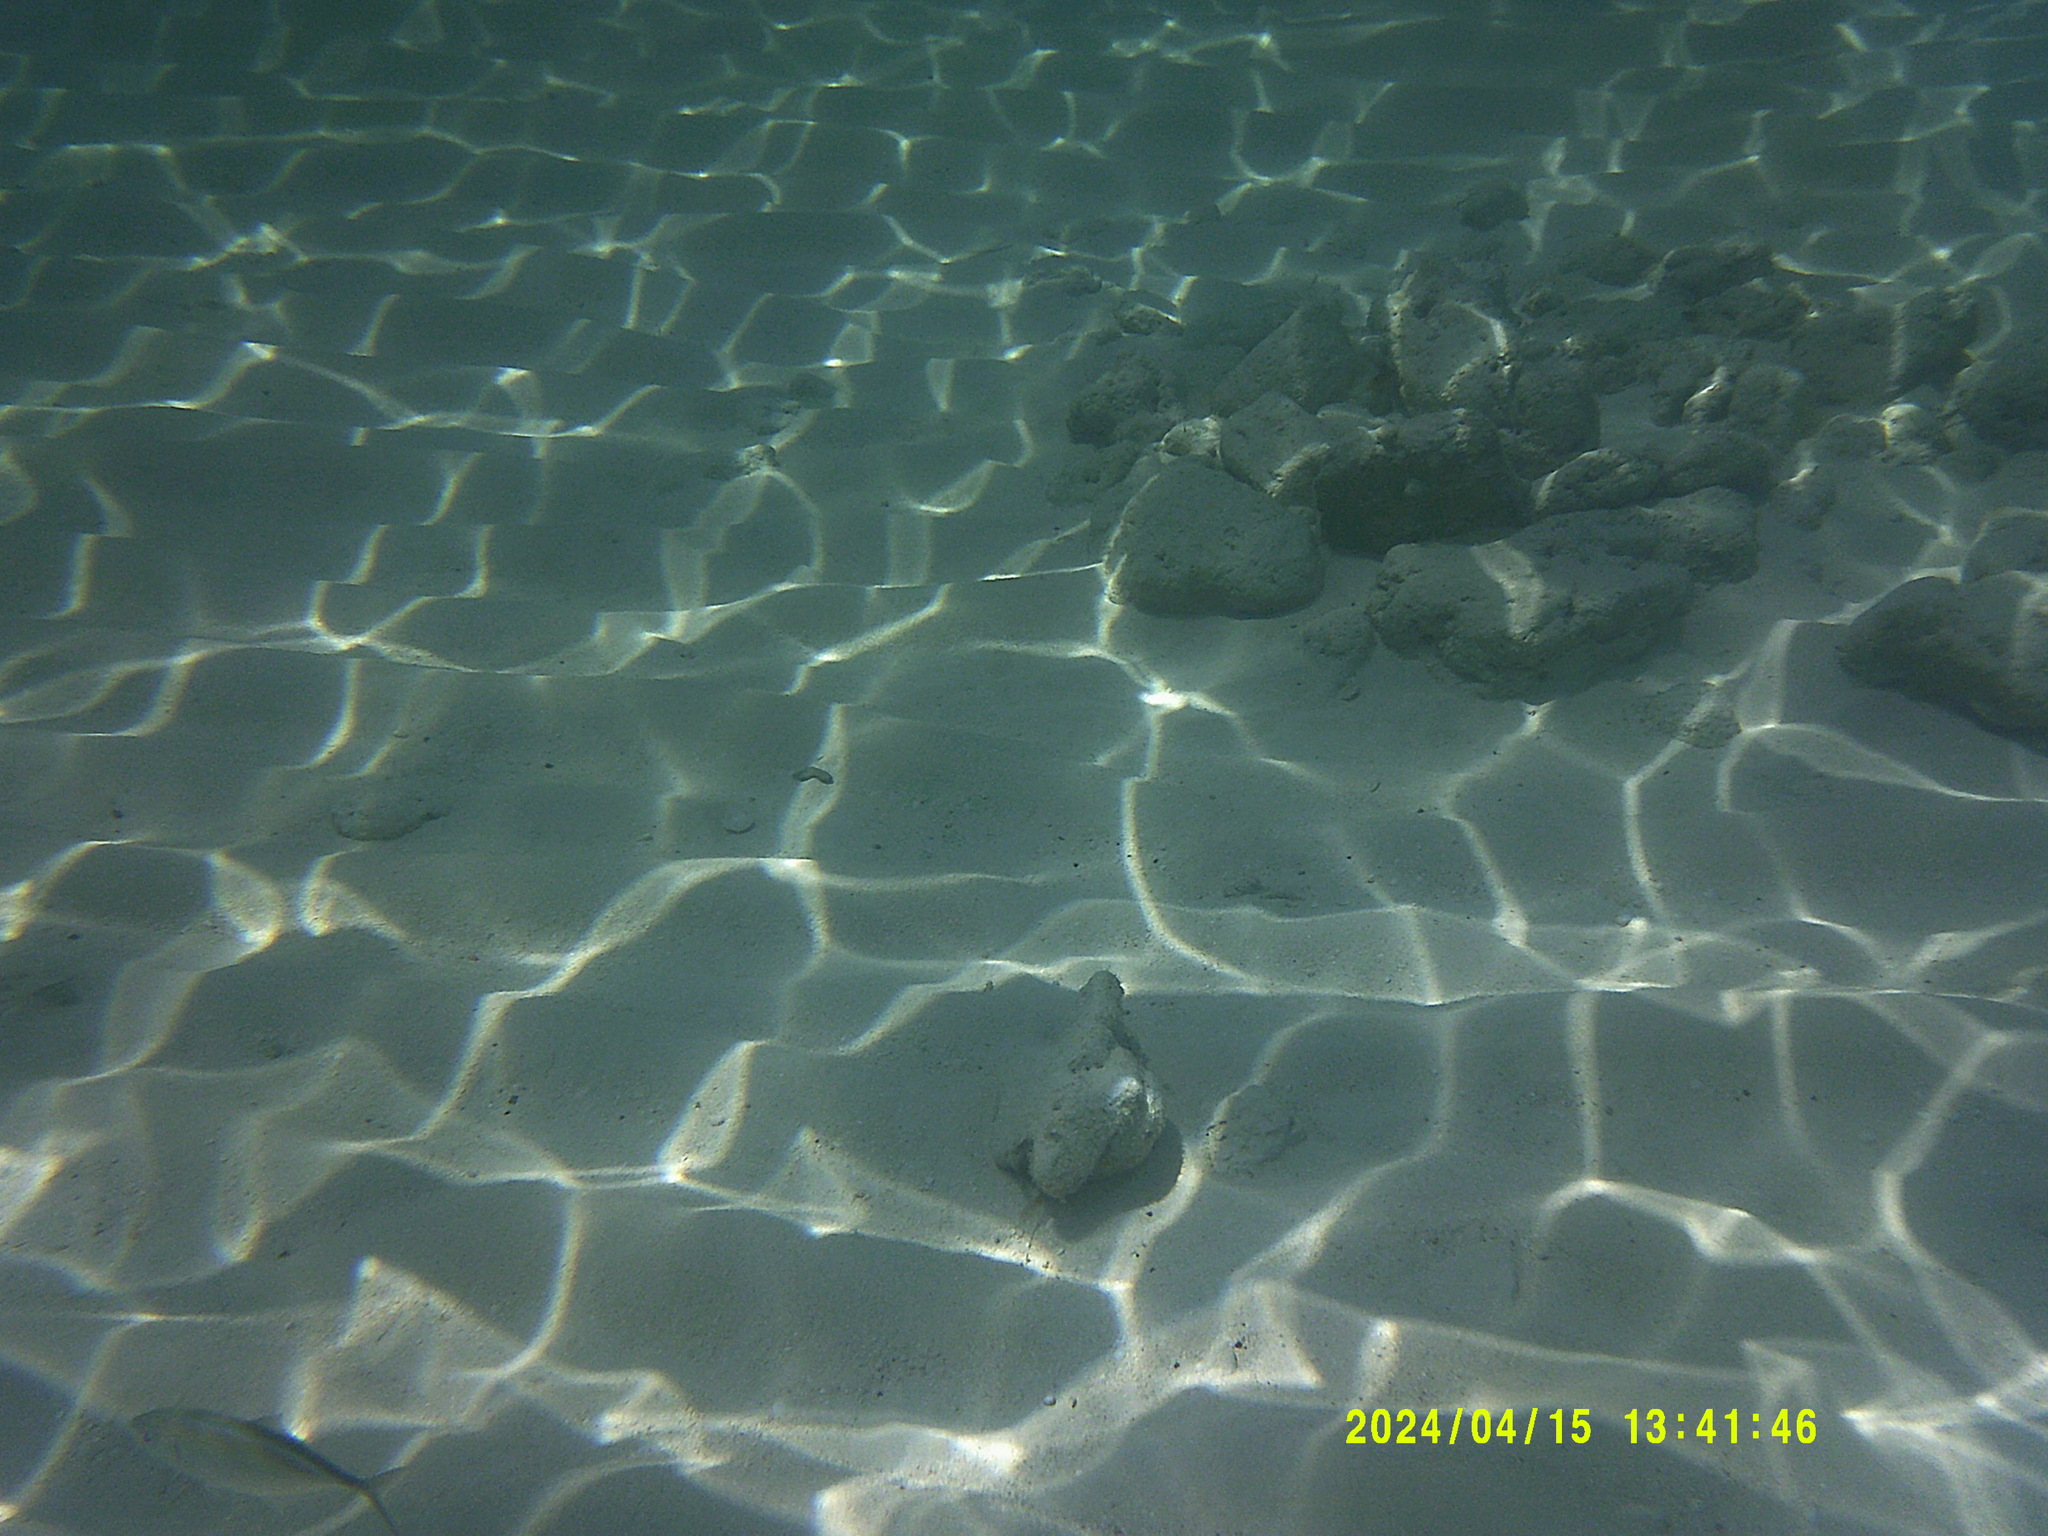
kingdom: Animalia
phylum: Chordata
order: Perciformes
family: Carangidae
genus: Caranx
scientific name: Caranx ruber
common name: Bar jack
